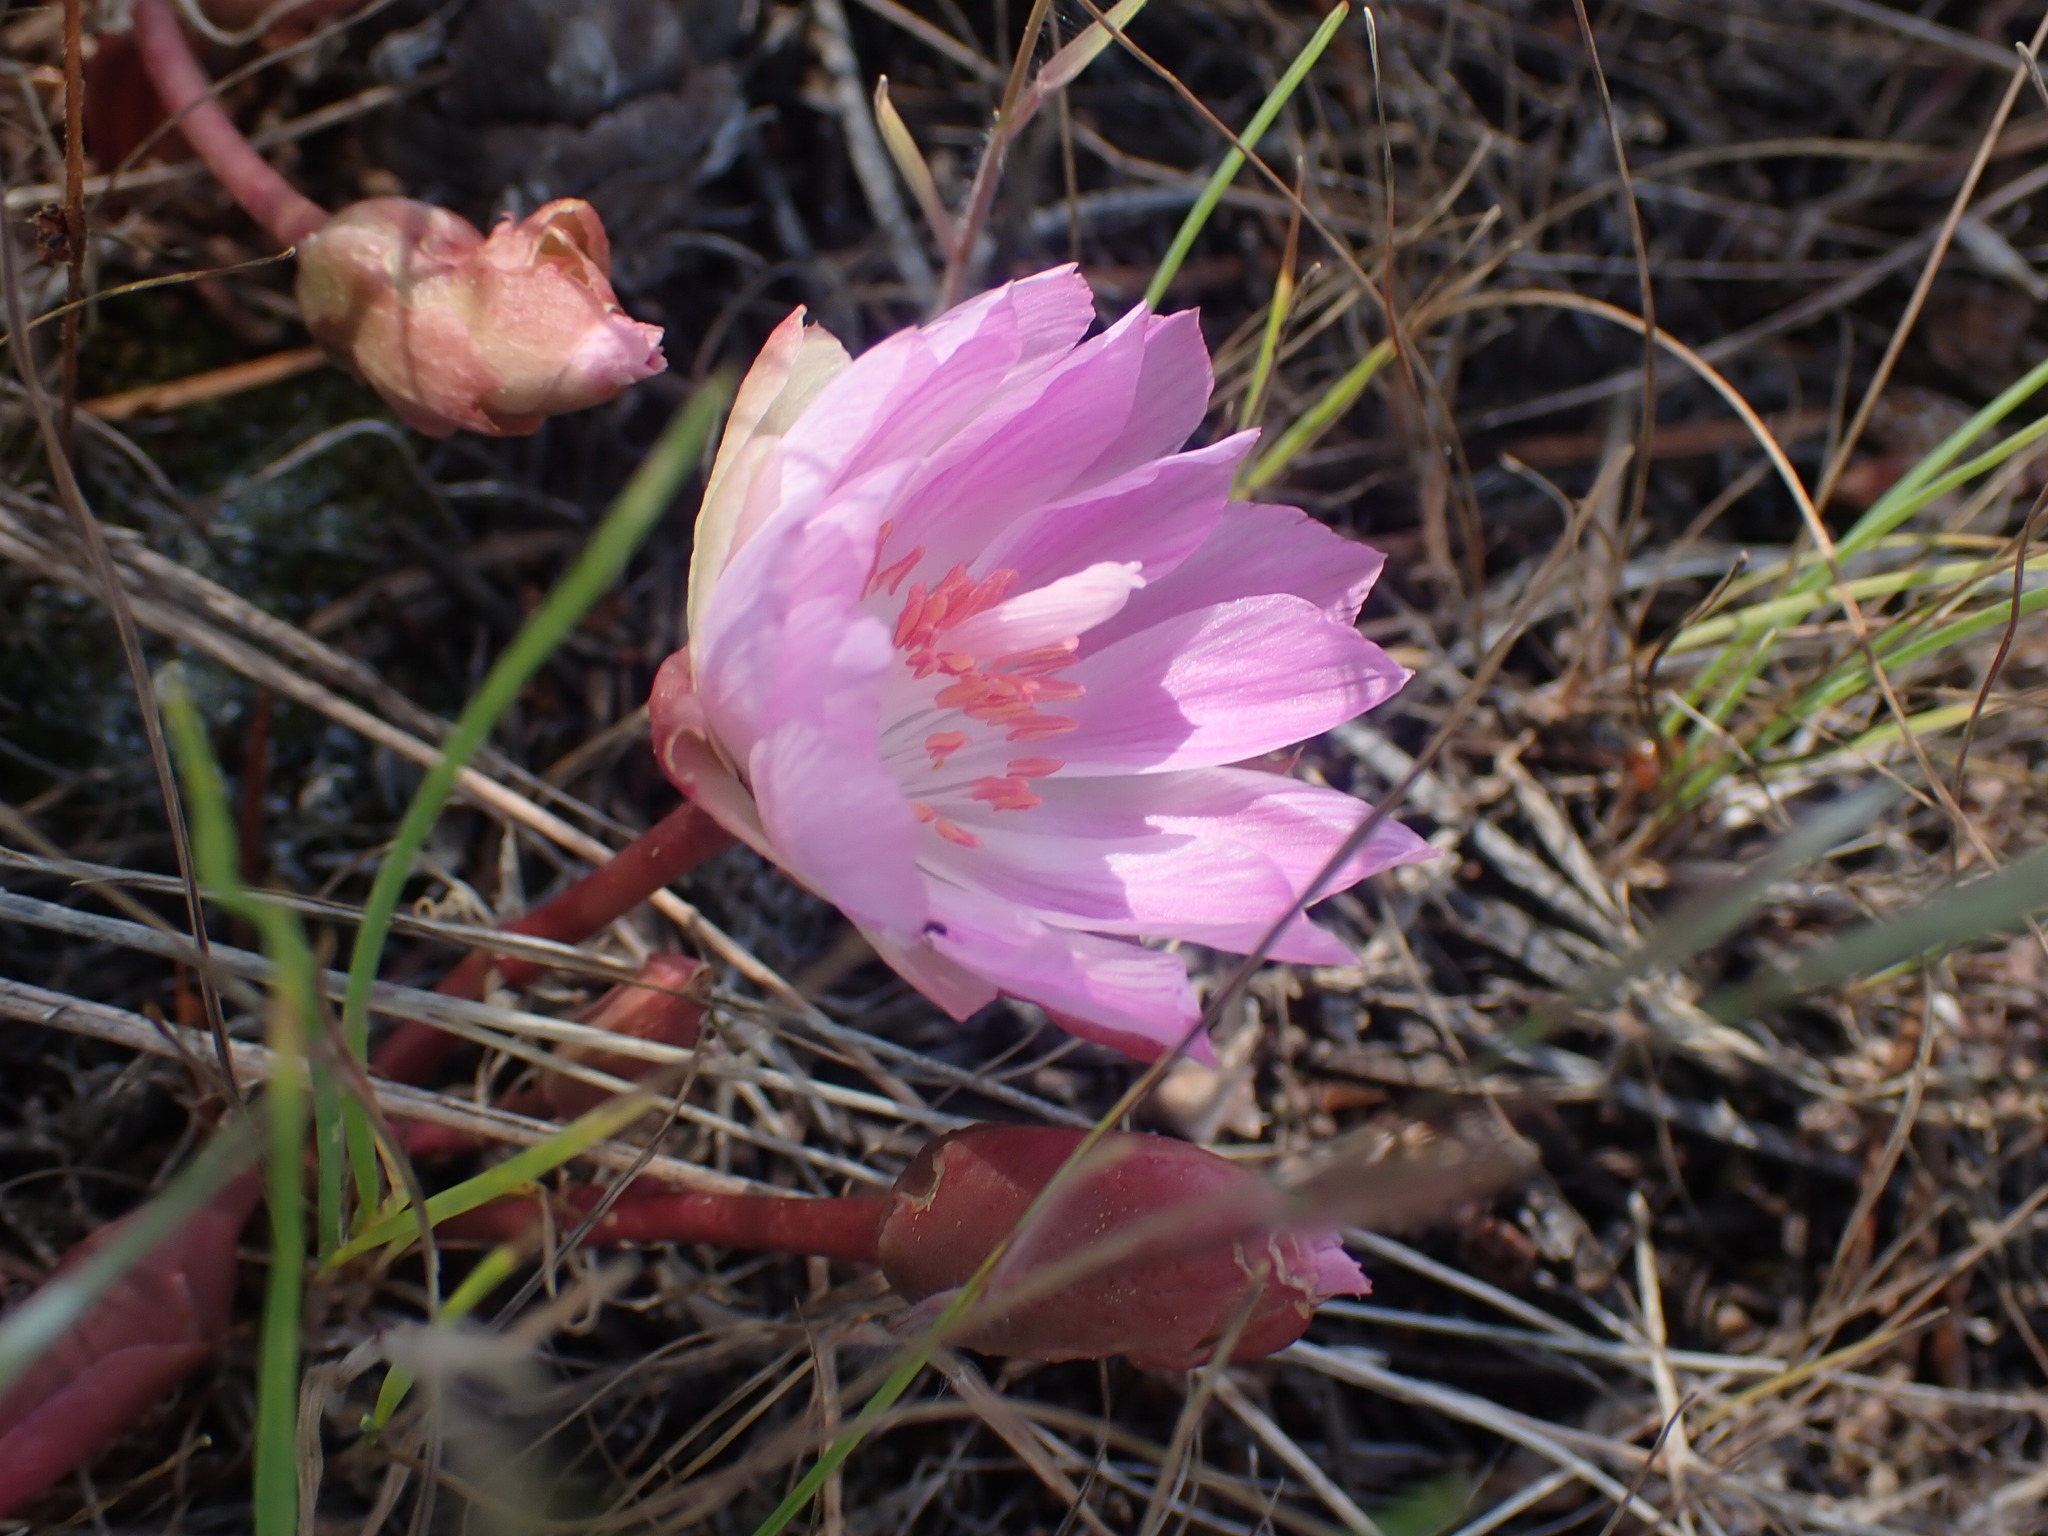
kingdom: Plantae
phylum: Tracheophyta
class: Magnoliopsida
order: Caryophyllales
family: Montiaceae
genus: Lewisia
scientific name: Lewisia rediviva
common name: Bitter-root
